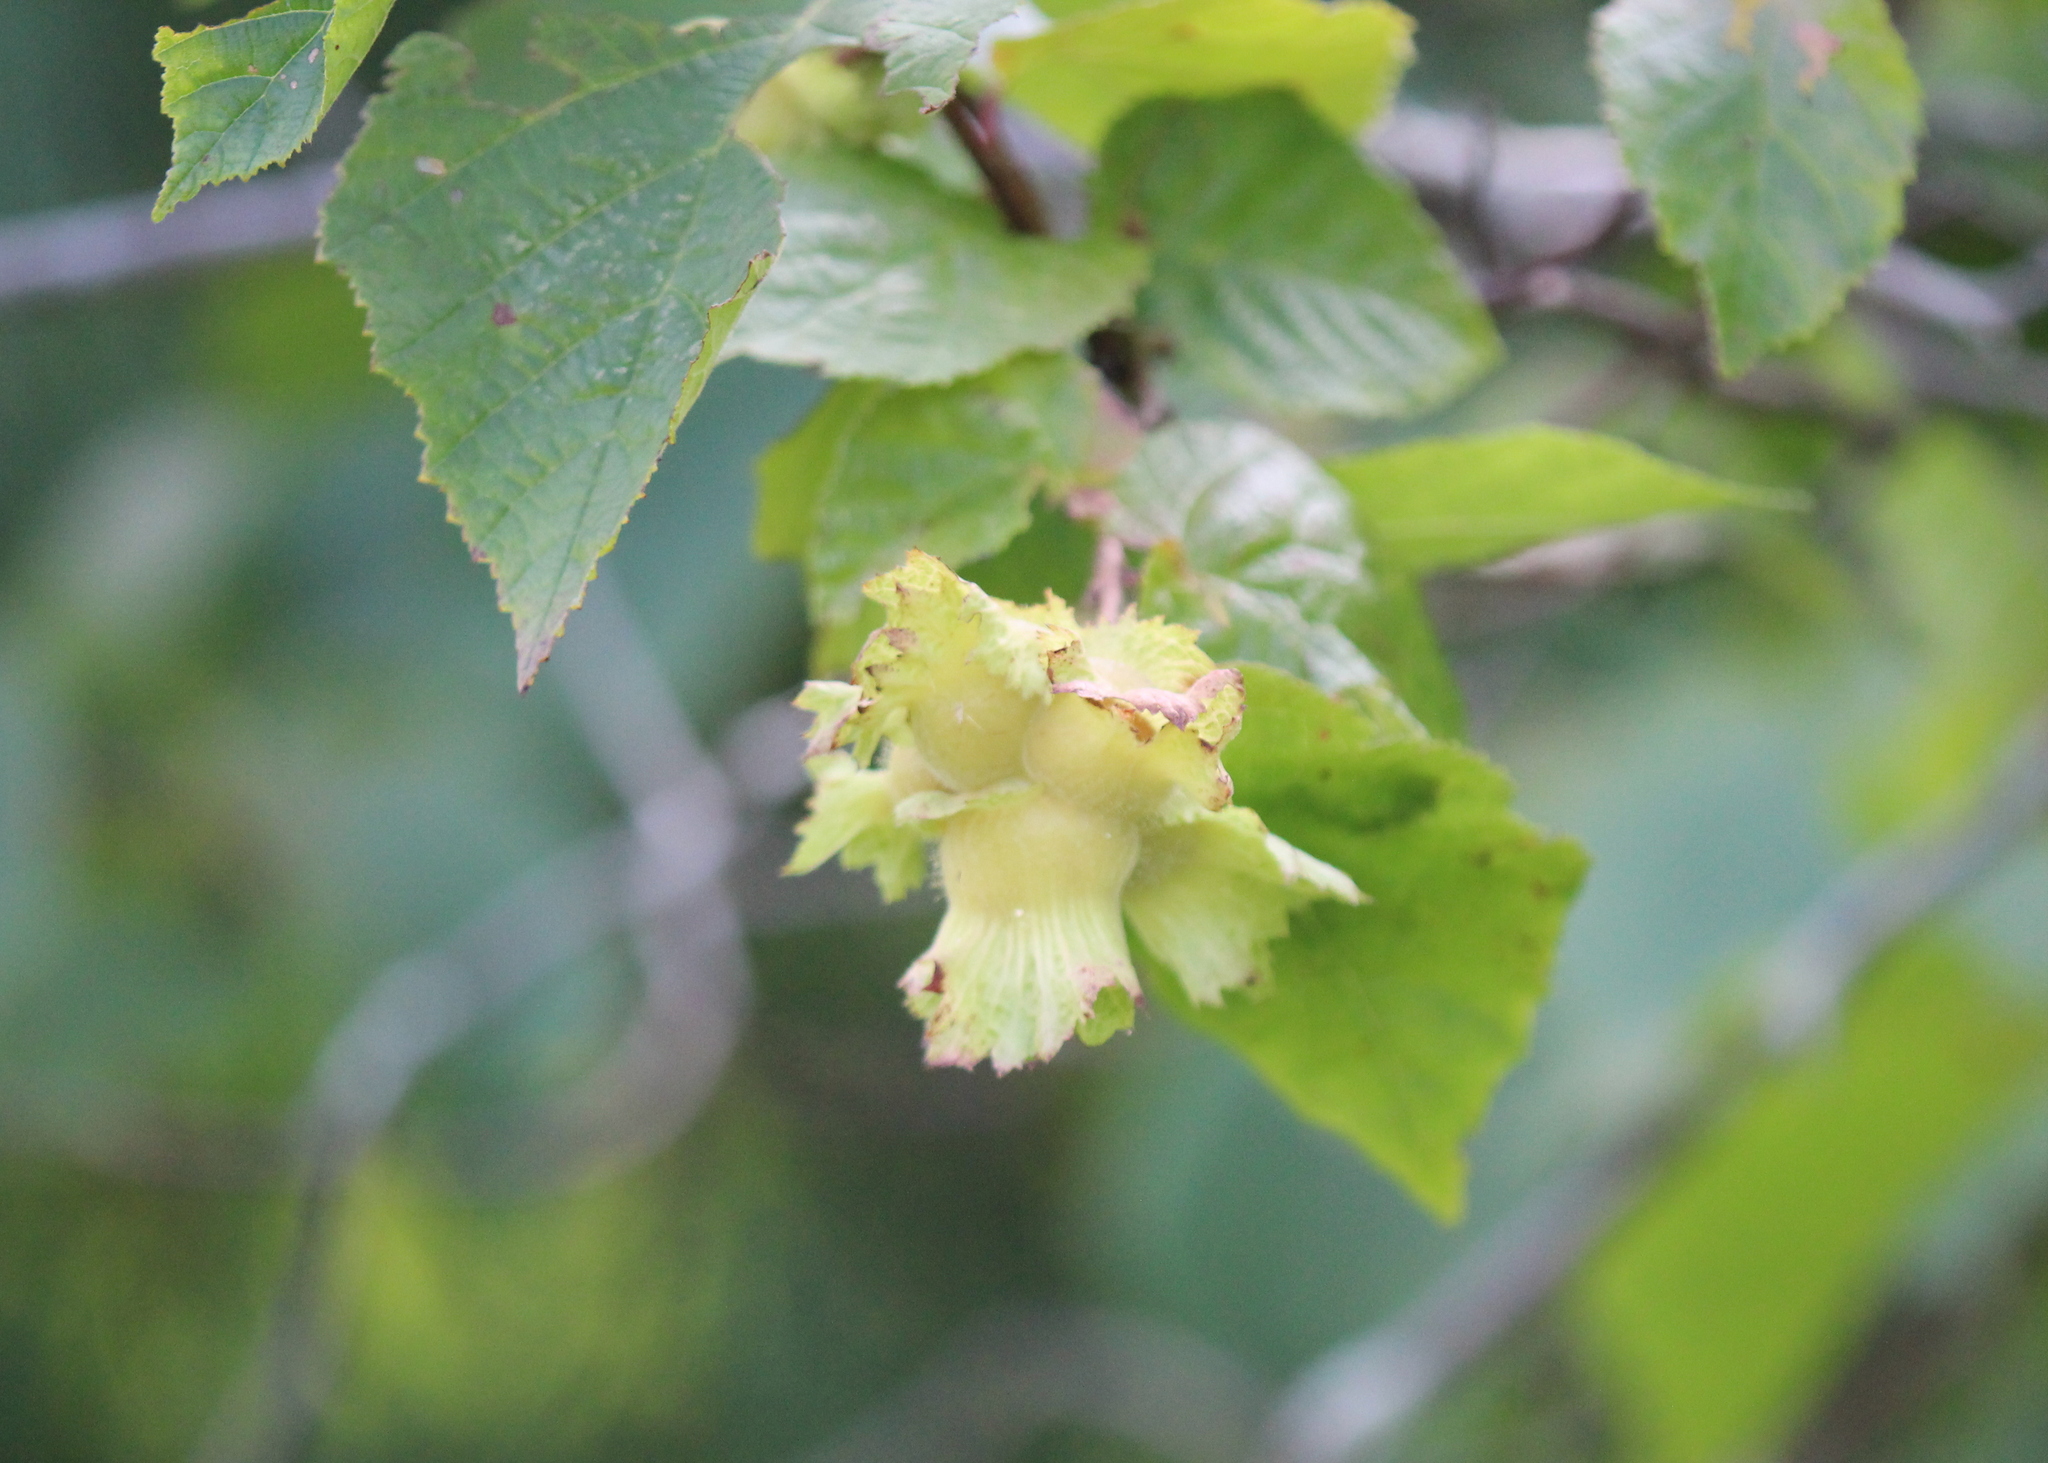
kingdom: Plantae
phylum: Tracheophyta
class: Magnoliopsida
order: Fagales
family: Betulaceae
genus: Corylus
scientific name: Corylus americana
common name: American hazel
